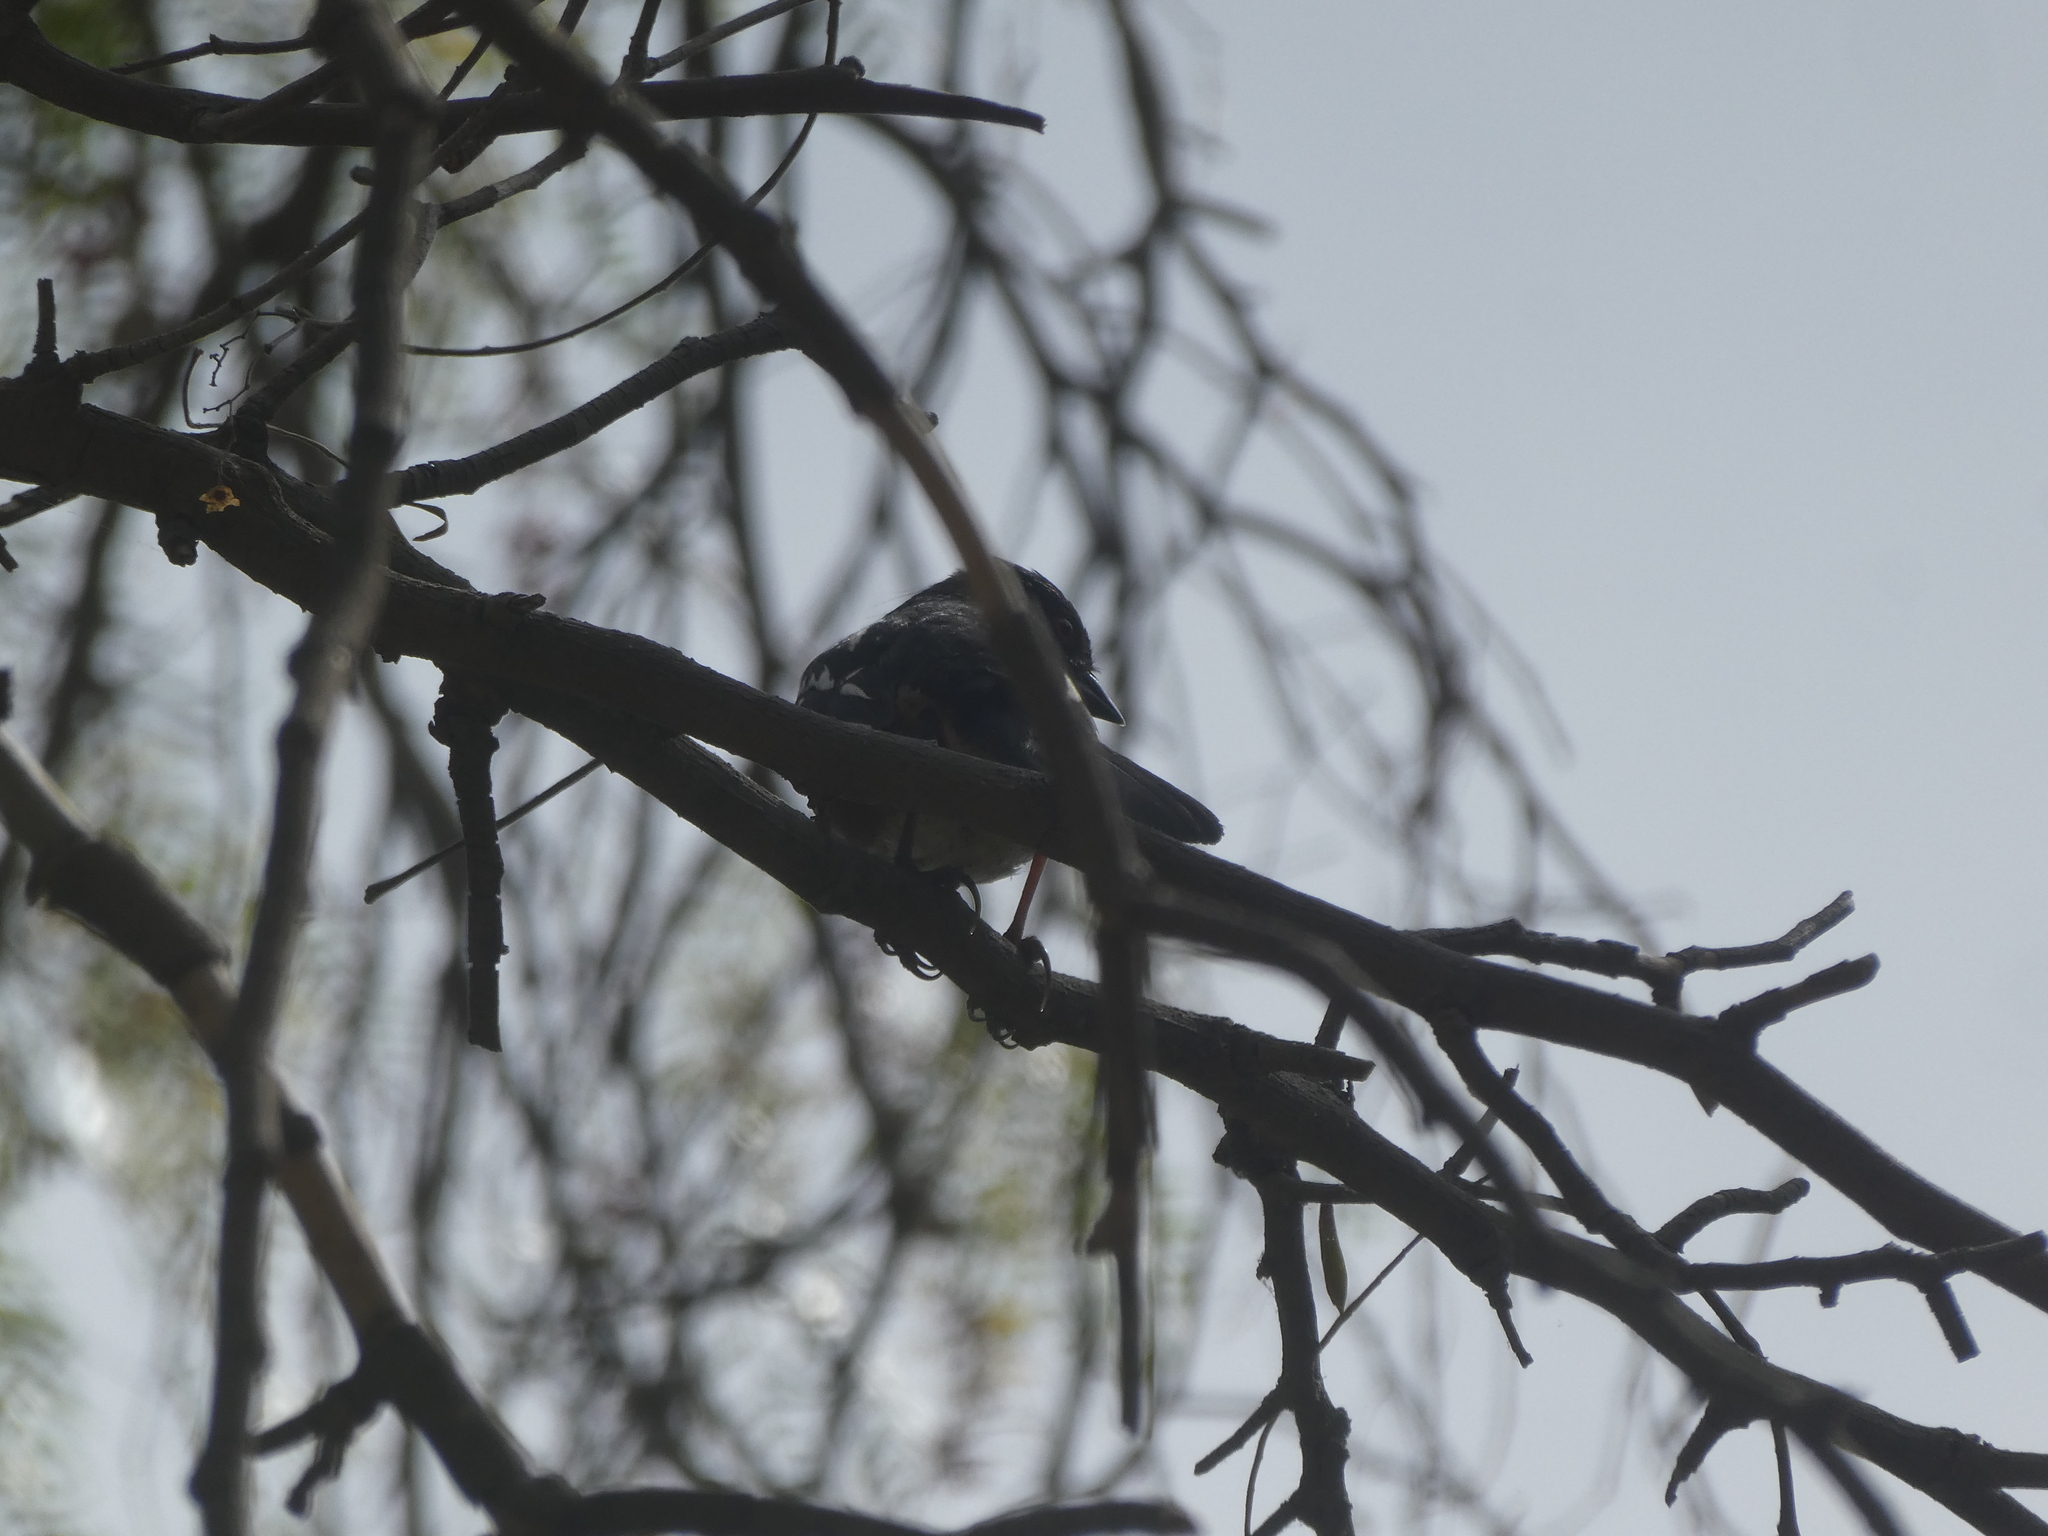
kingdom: Animalia
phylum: Chordata
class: Aves
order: Passeriformes
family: Passerellidae
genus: Pipilo
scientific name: Pipilo maculatus
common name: Spotted towhee
